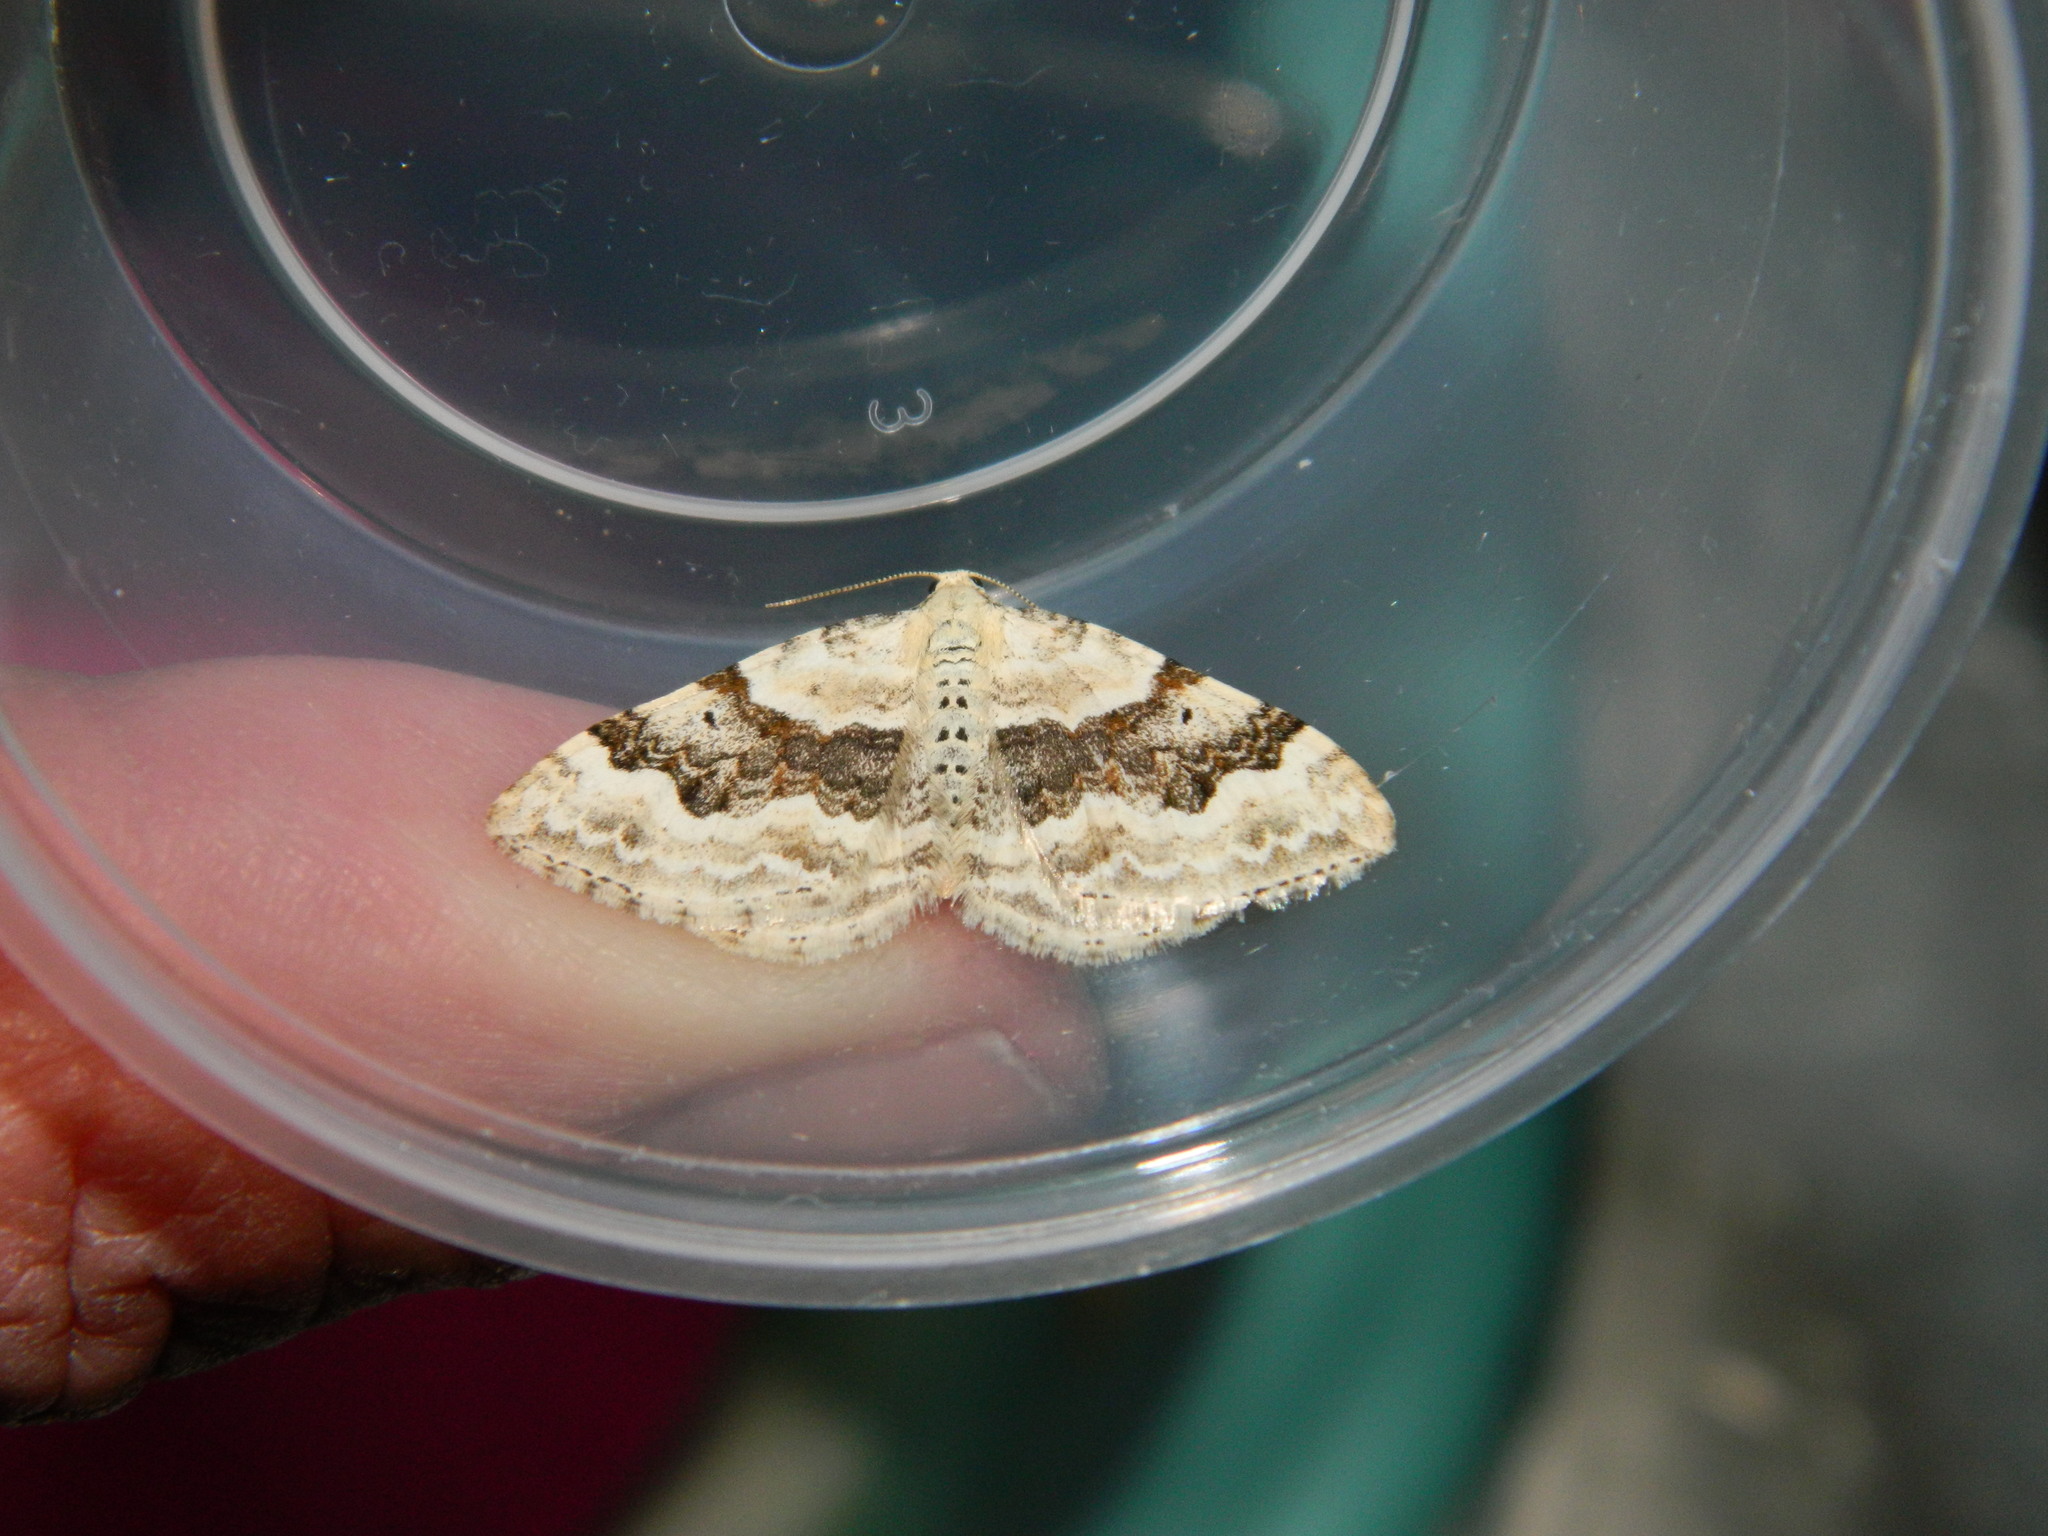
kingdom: Animalia
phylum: Arthropoda
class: Insecta
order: Lepidoptera
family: Geometridae
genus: Xanthorhoe
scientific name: Xanthorhoe montanata
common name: Silver-ground carpet
